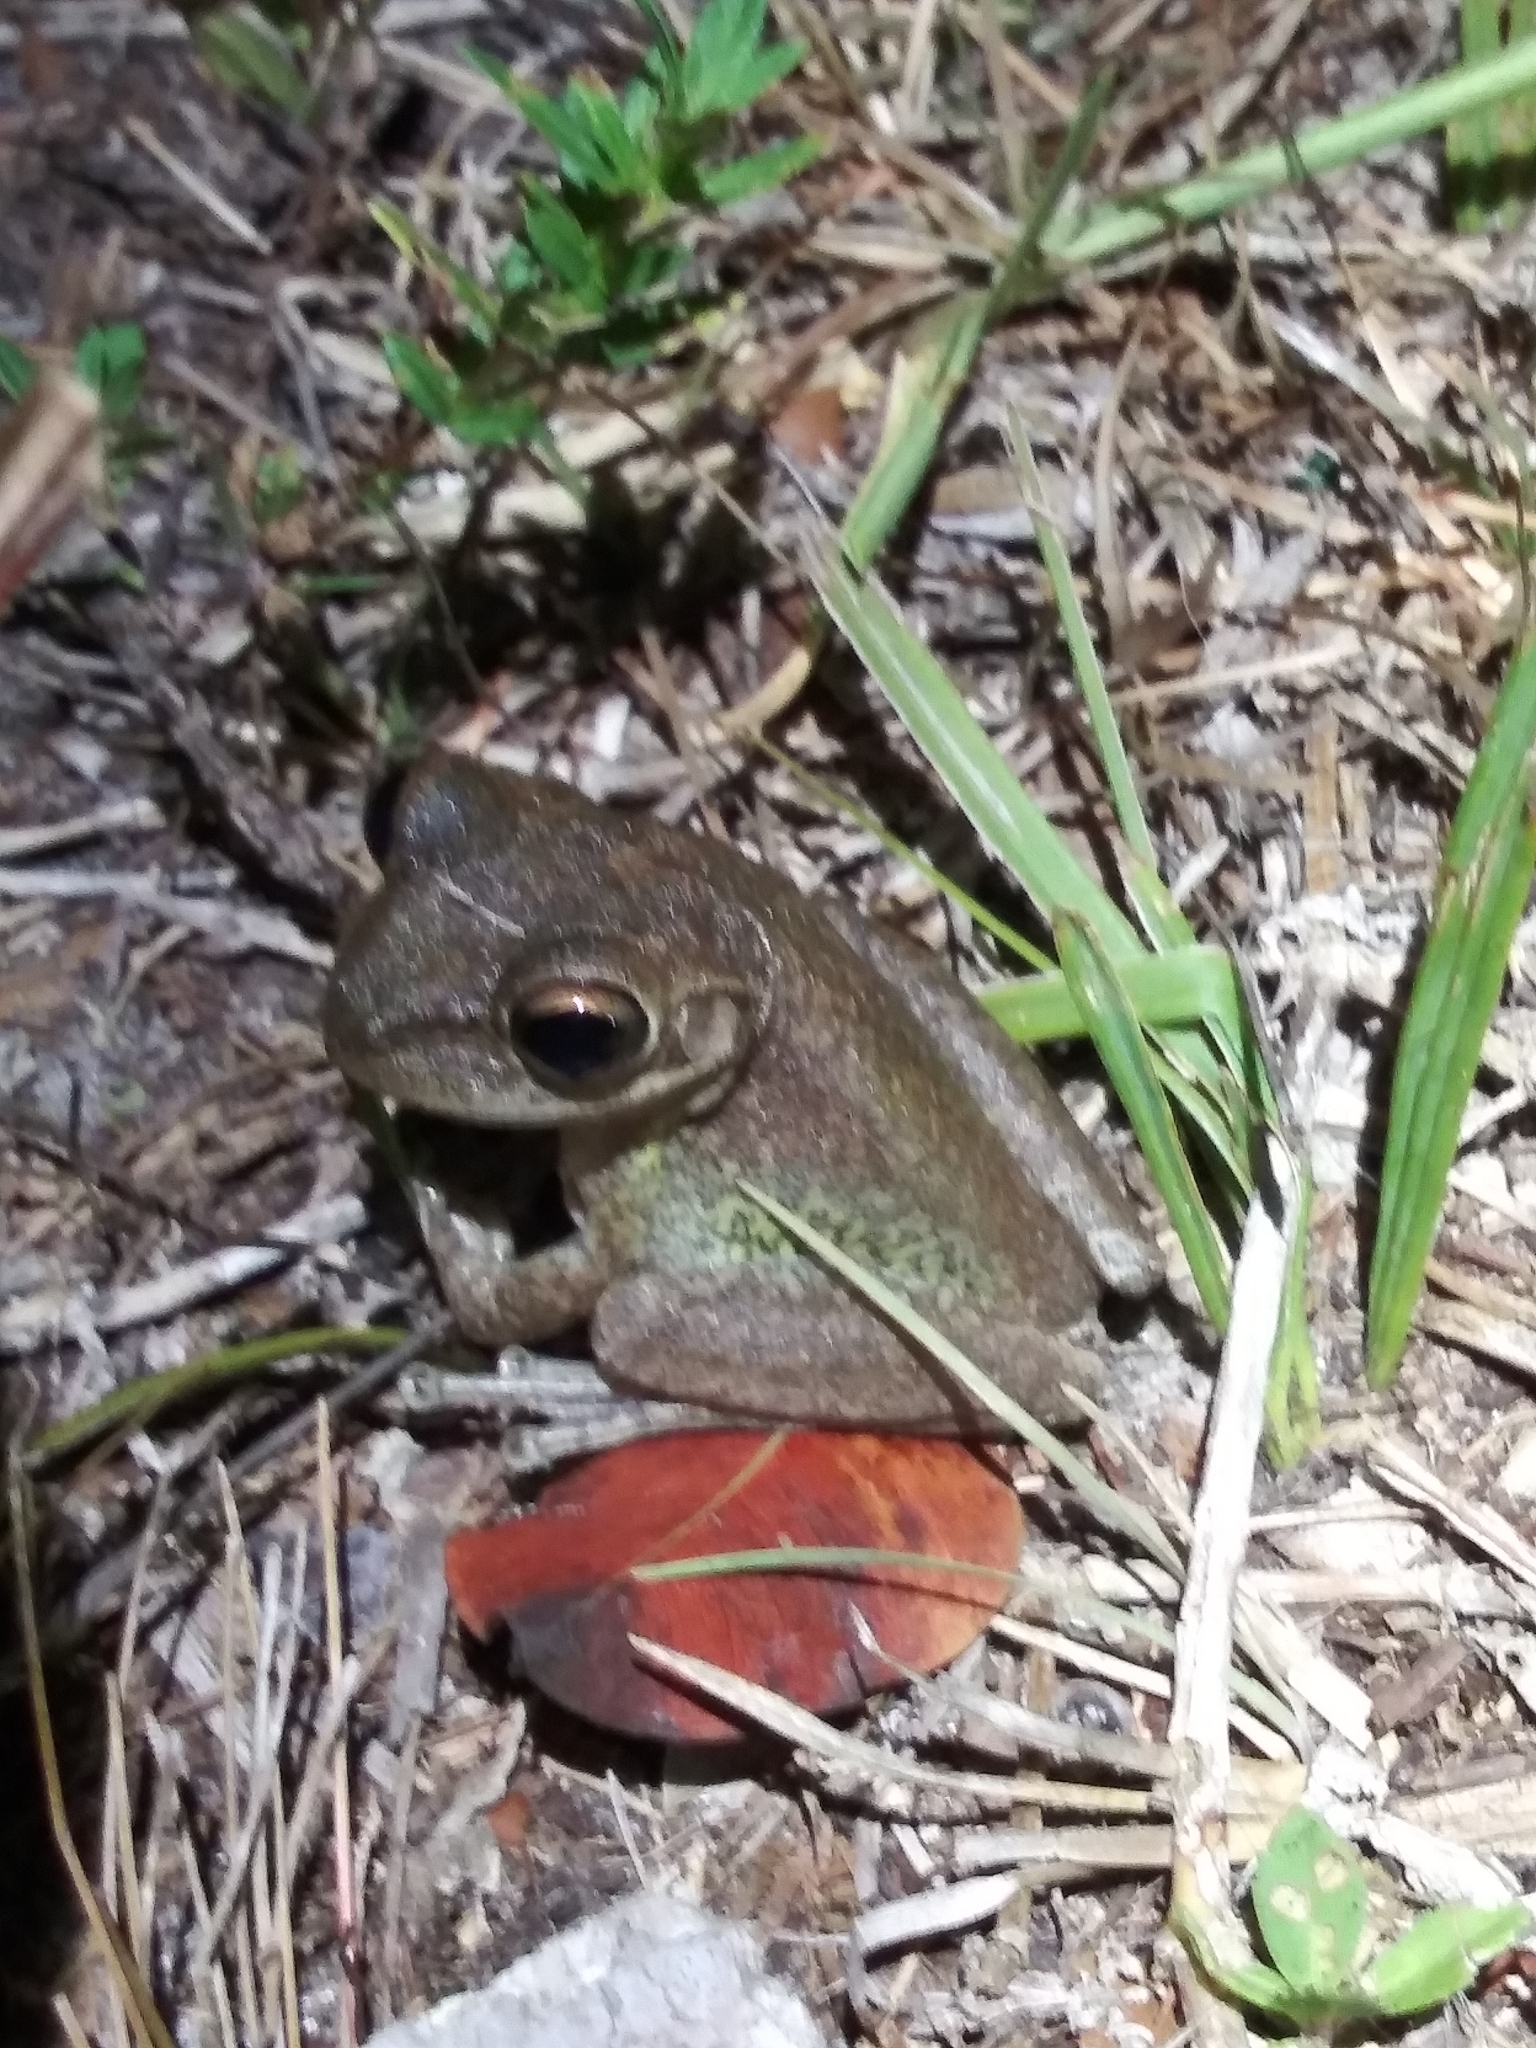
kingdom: Animalia
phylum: Chordata
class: Amphibia
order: Anura
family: Hylidae
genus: Osteopilus
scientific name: Osteopilus septentrionalis
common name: Cuban treefrog
